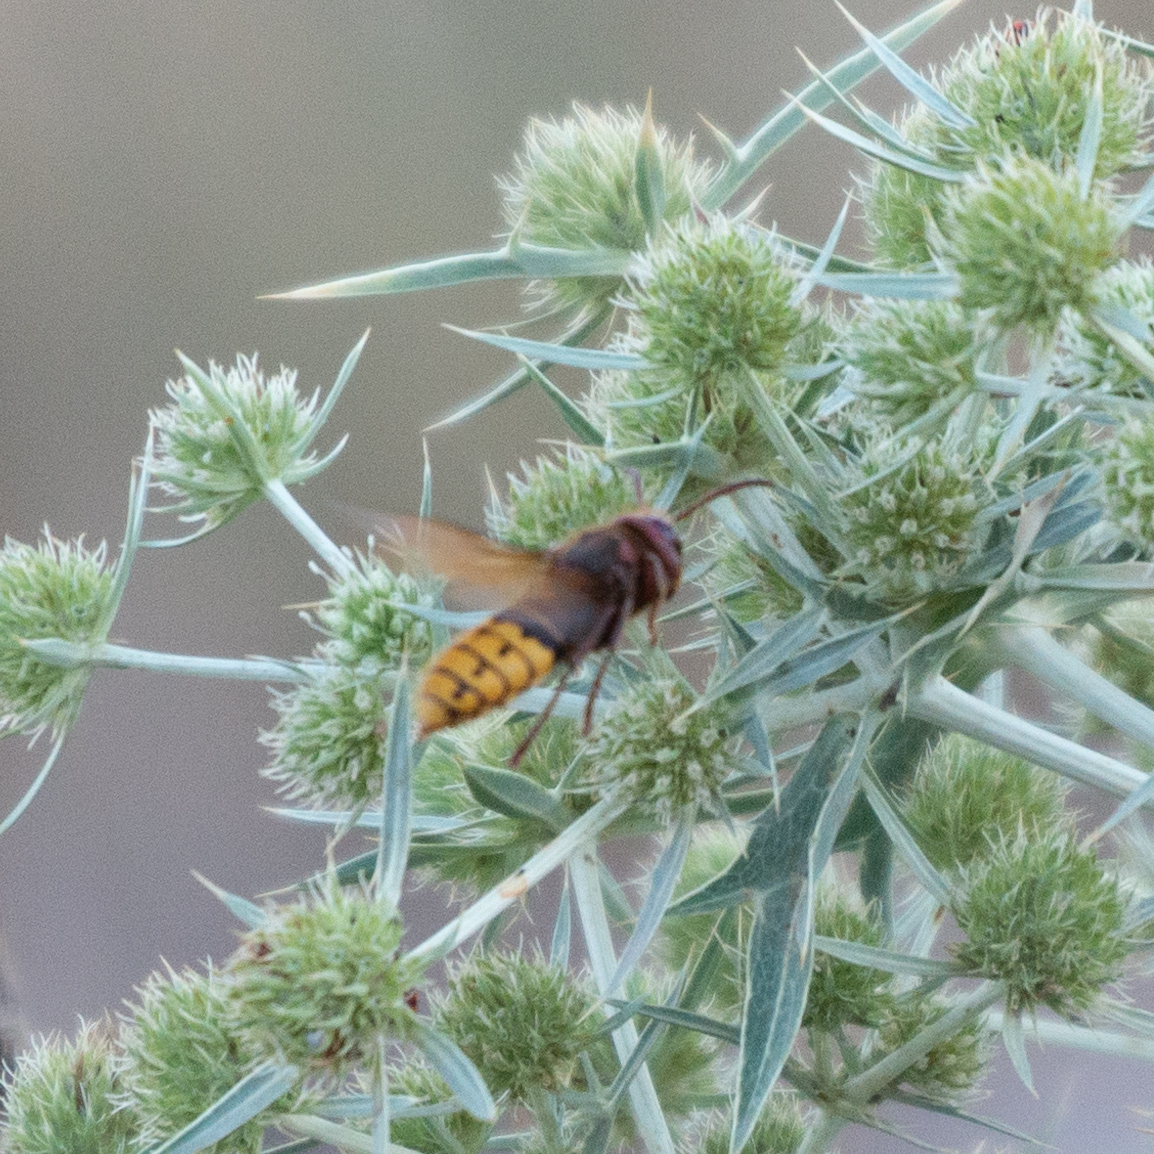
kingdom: Animalia
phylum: Arthropoda
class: Insecta
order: Hymenoptera
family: Vespidae
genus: Vespa
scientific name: Vespa crabro
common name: Hornet
